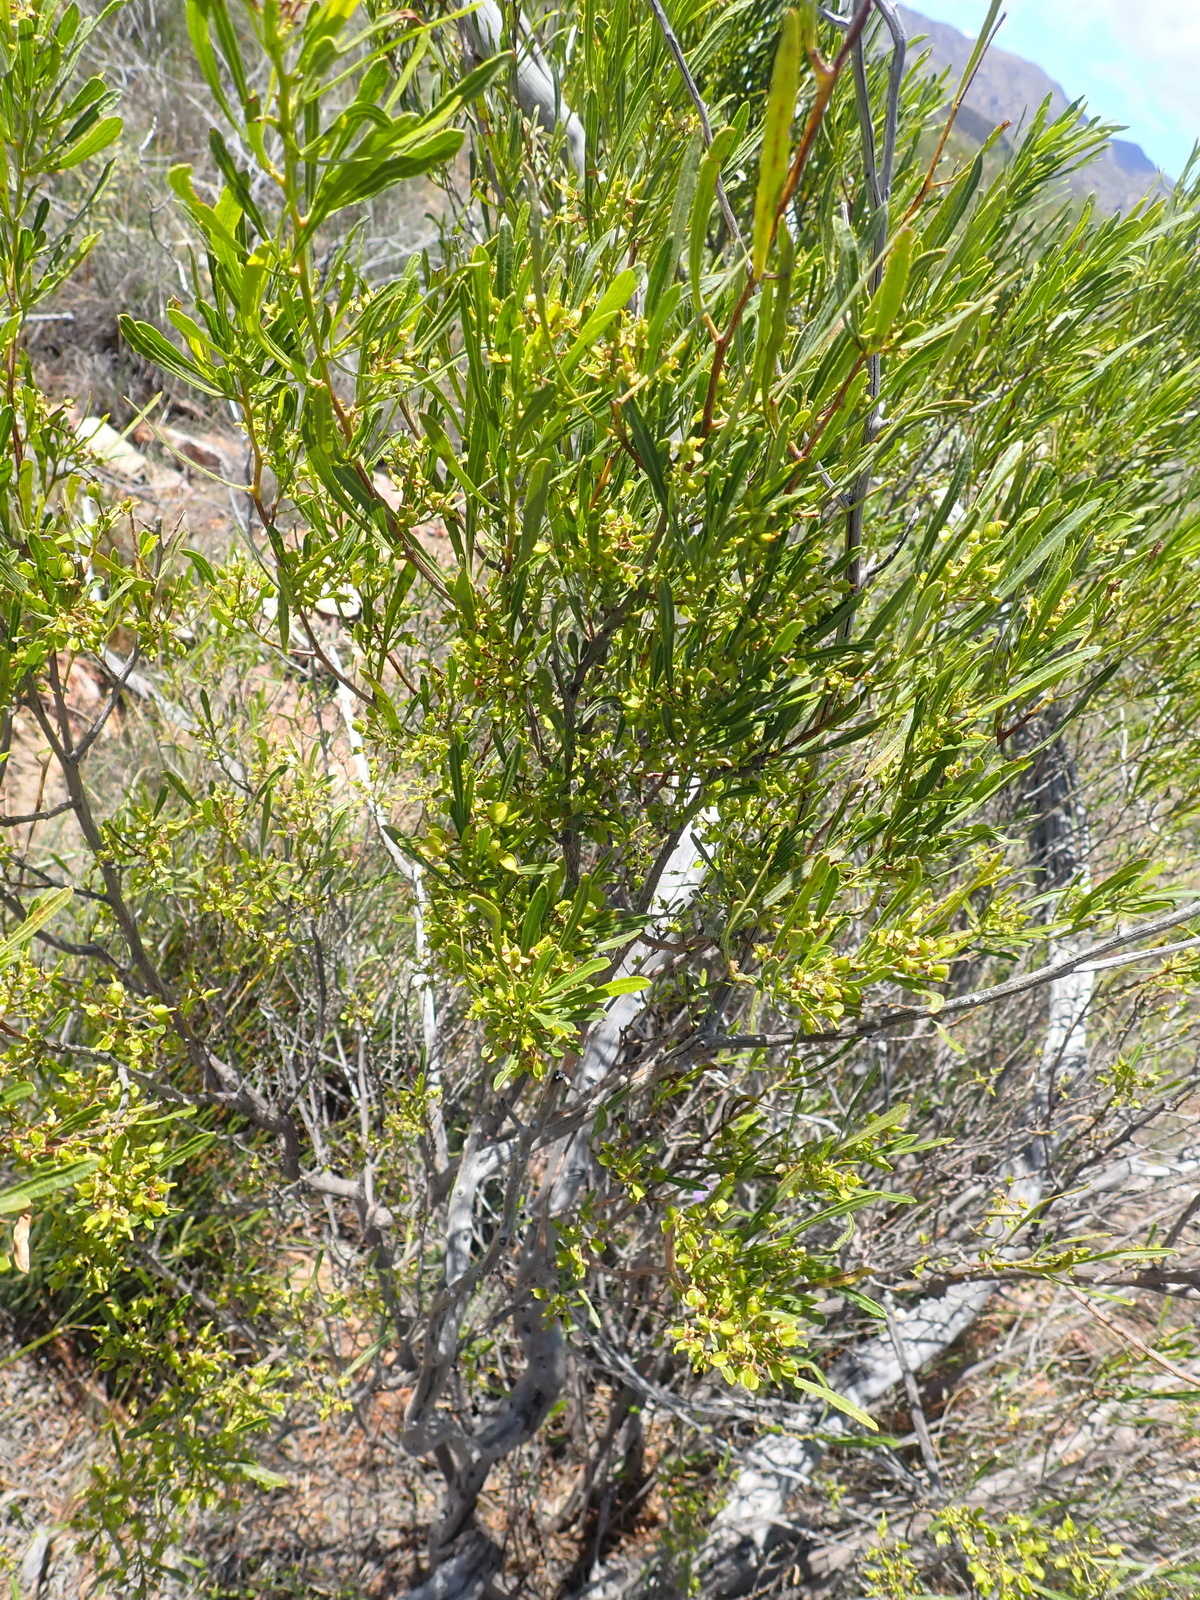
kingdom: Plantae
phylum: Tracheophyta
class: Magnoliopsida
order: Sapindales
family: Sapindaceae
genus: Dodonaea
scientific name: Dodonaea viscosa
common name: Hopbush
